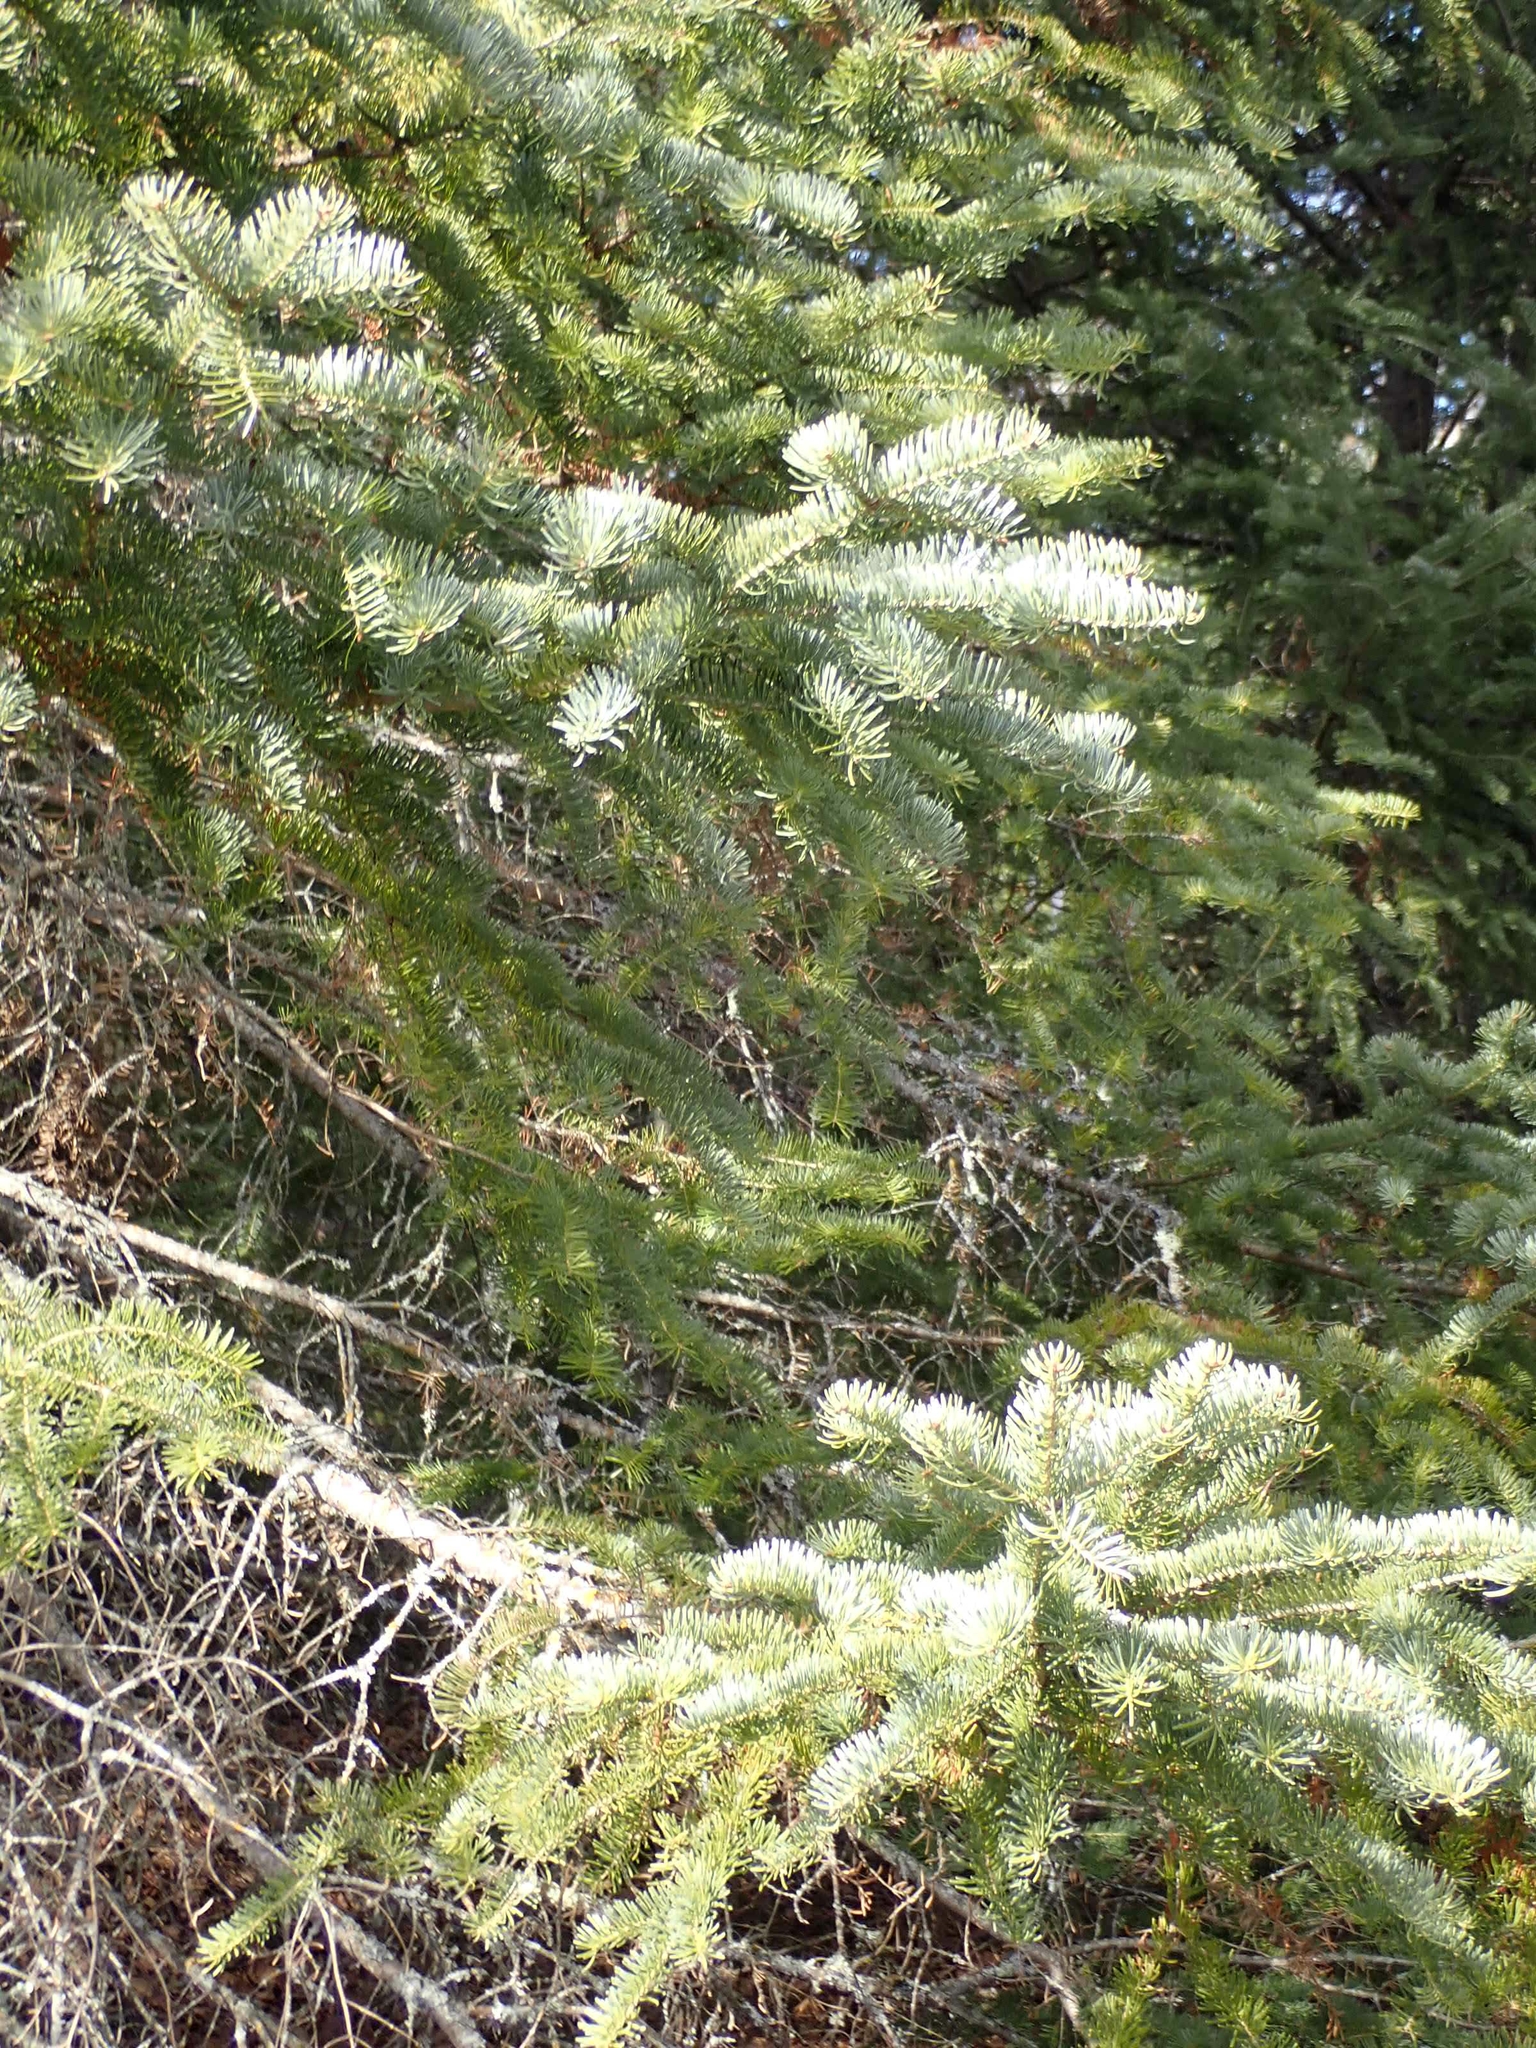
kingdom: Plantae
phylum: Tracheophyta
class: Pinopsida
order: Pinales
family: Pinaceae
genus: Picea
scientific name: Picea glauca
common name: White spruce
